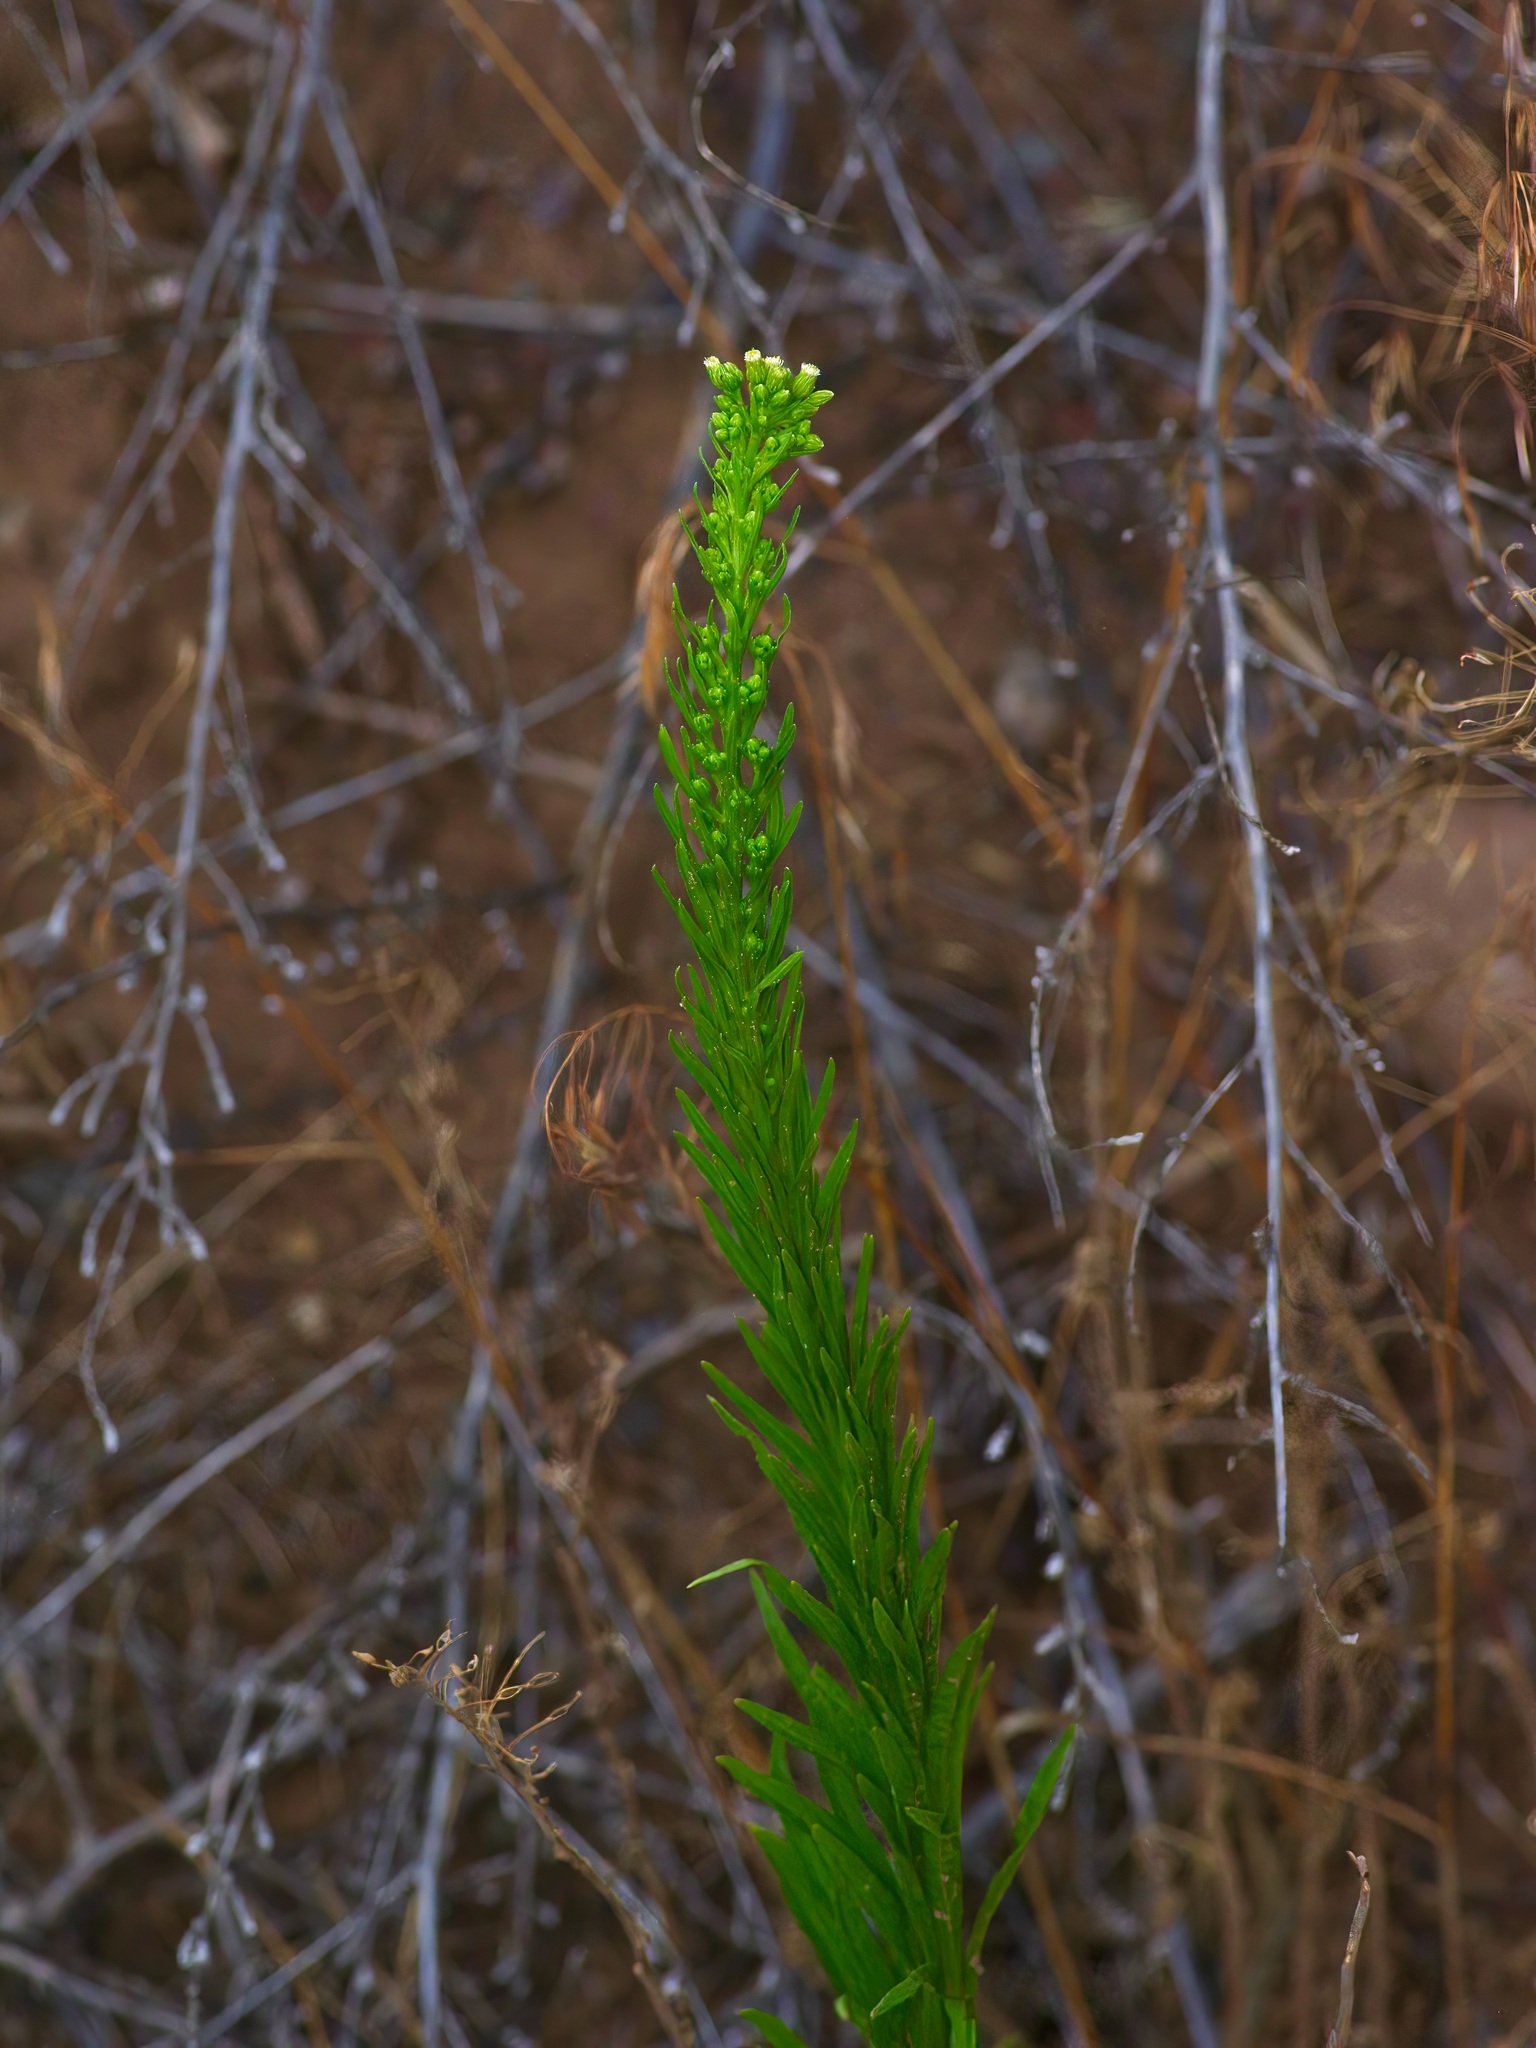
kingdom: Plantae
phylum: Tracheophyta
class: Magnoliopsida
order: Asterales
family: Asteraceae
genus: Erigeron
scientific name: Erigeron canadensis
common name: Canadian fleabane
